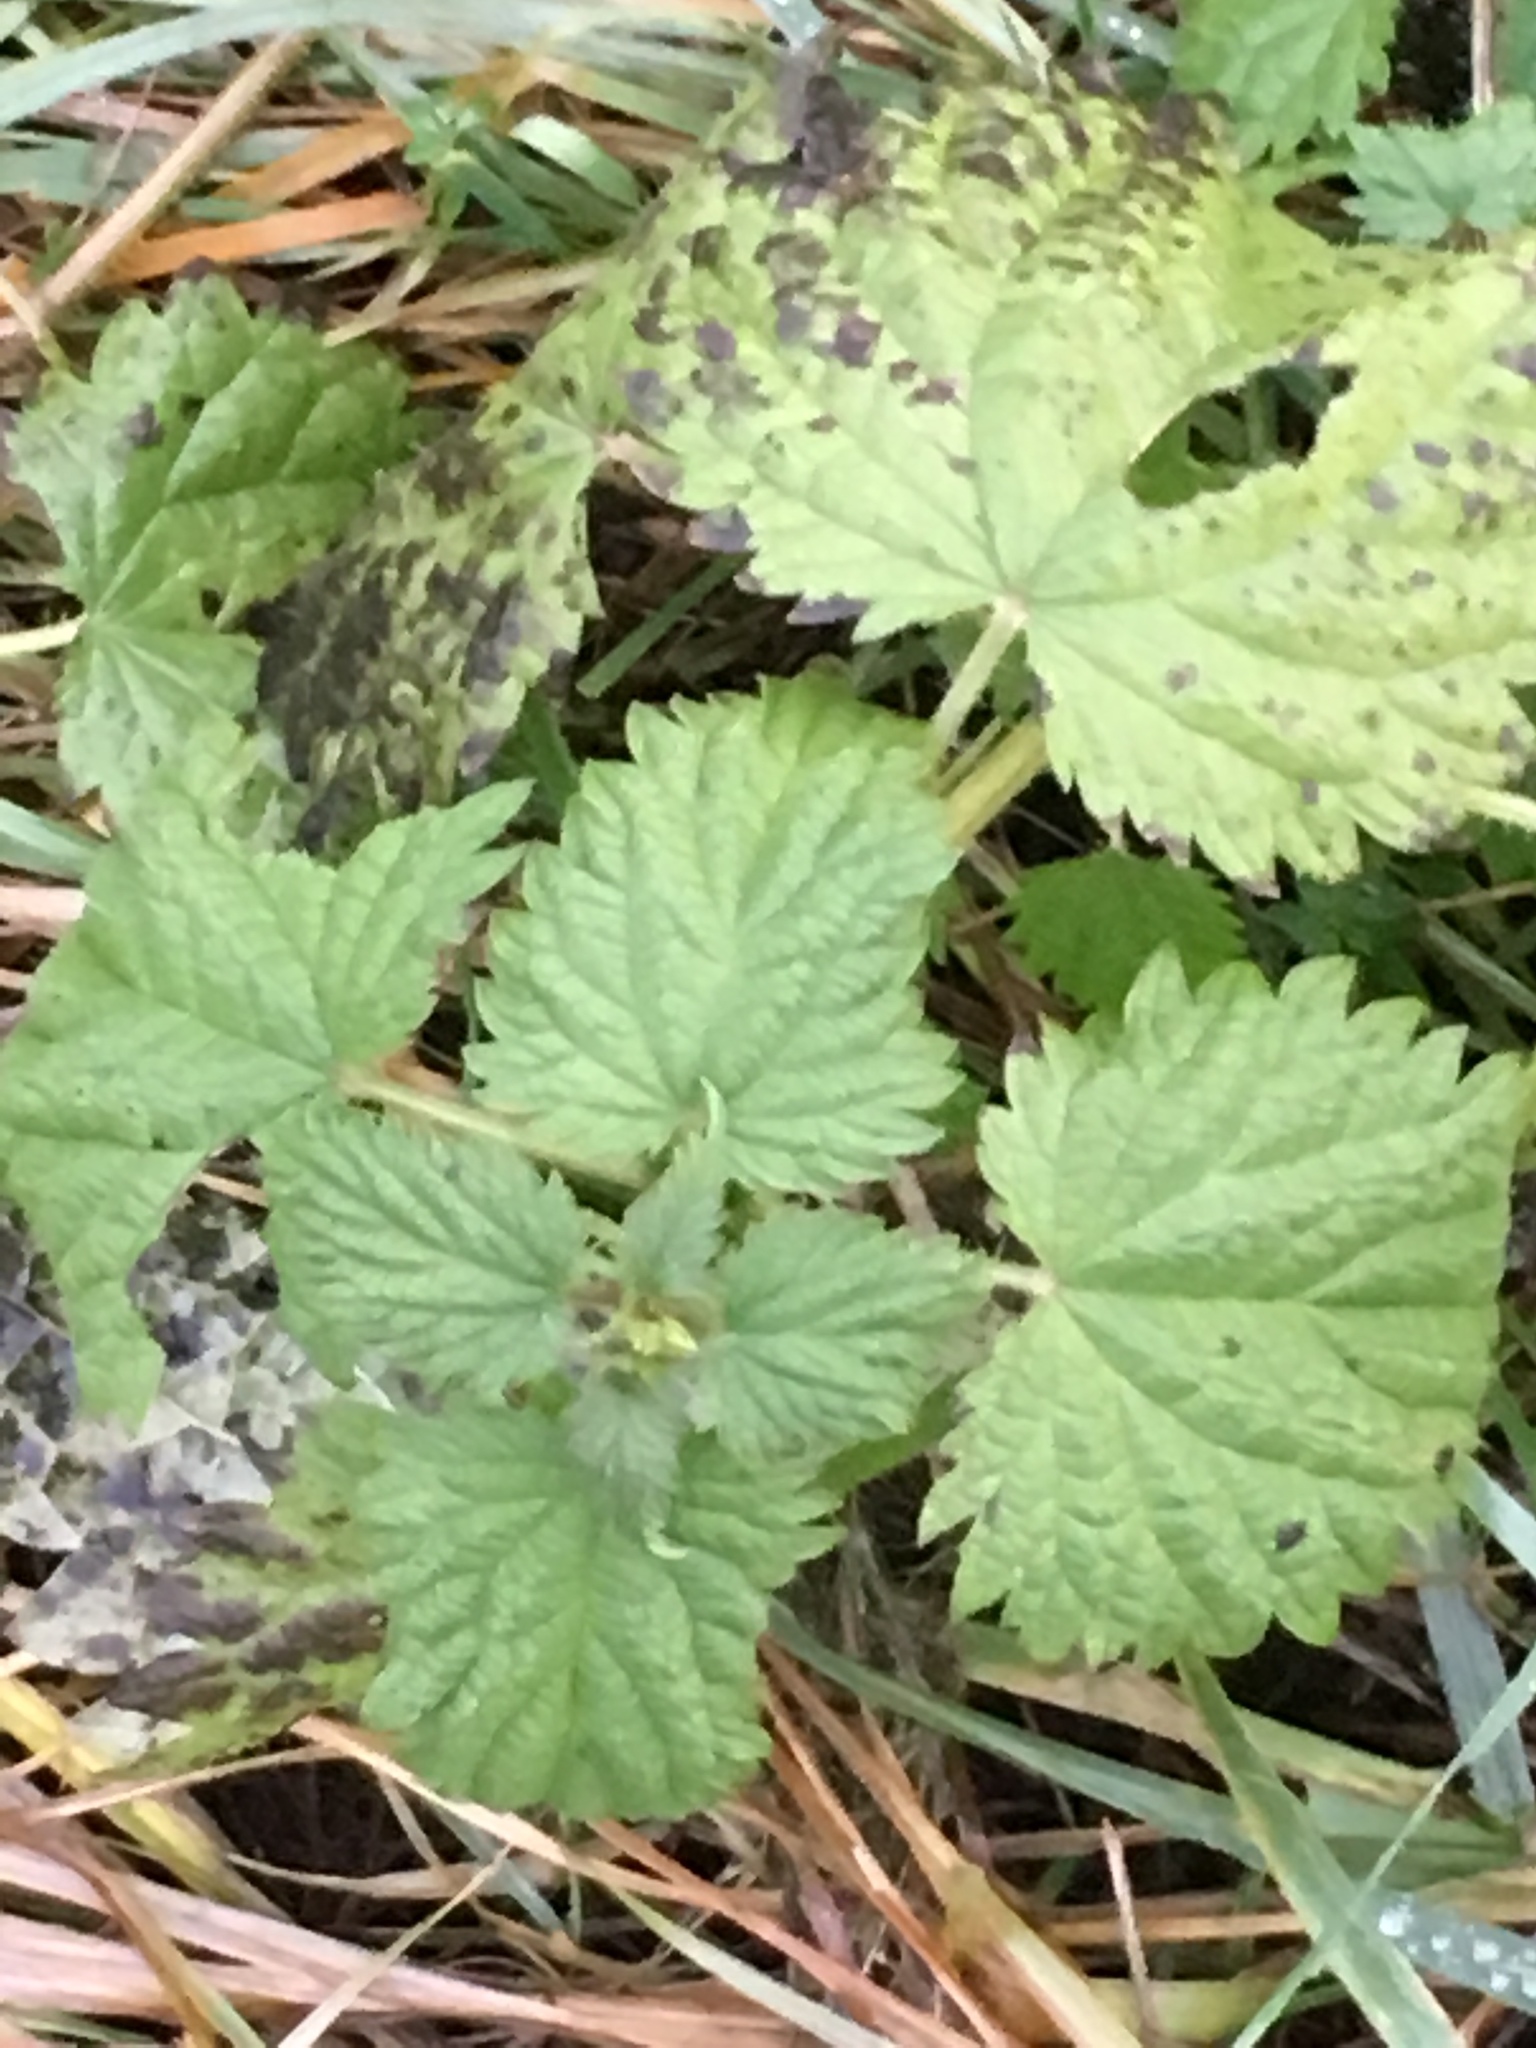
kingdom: Plantae
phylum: Tracheophyta
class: Magnoliopsida
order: Rosales
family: Urticaceae
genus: Urtica
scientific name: Urtica dioica
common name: Common nettle
